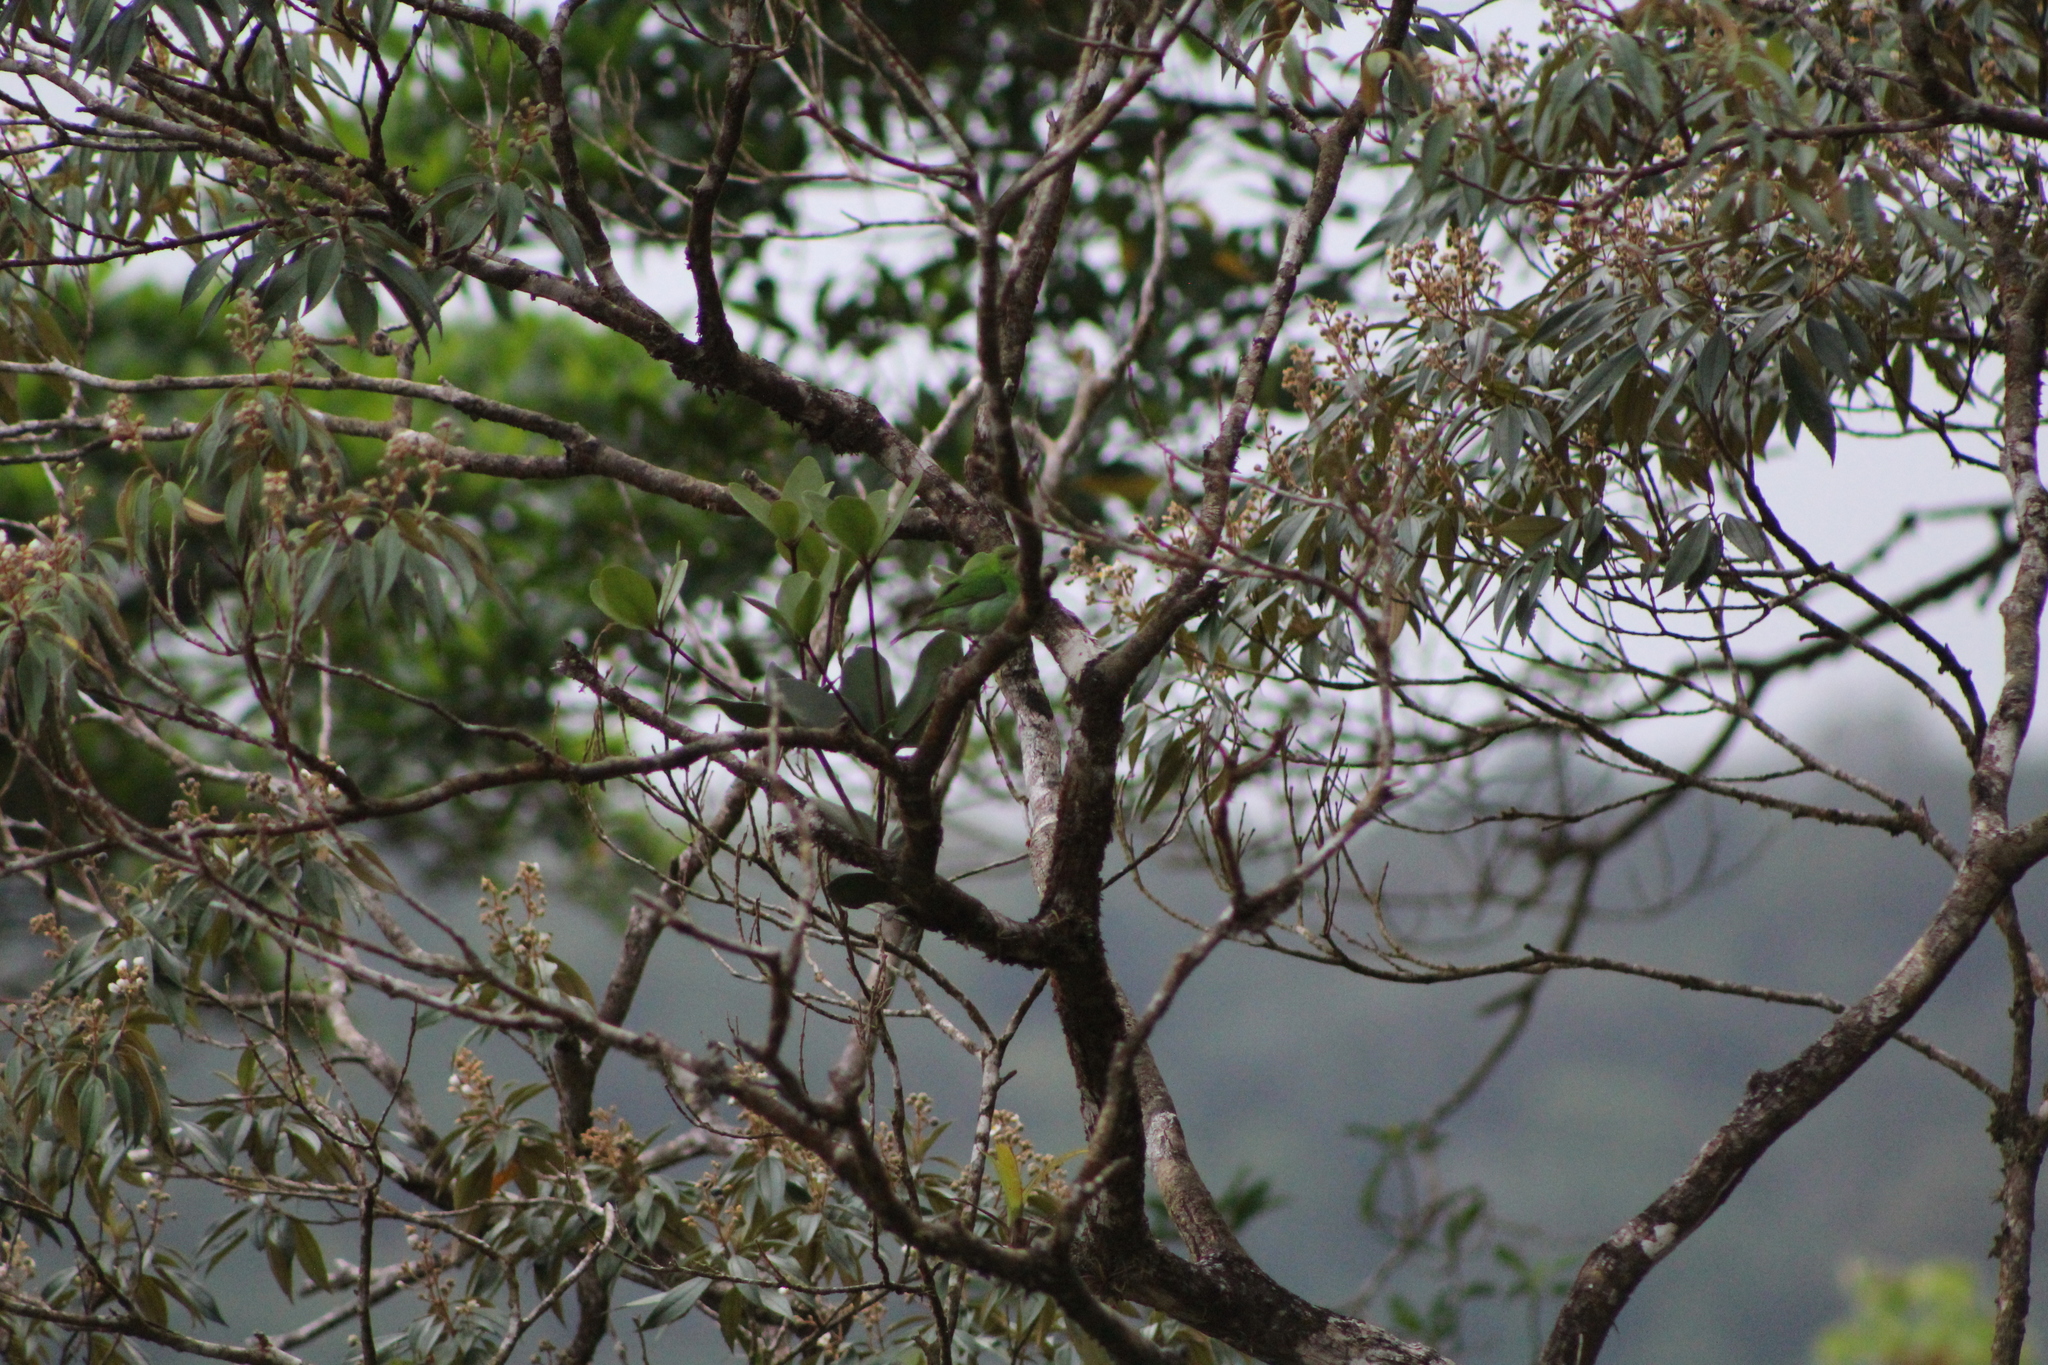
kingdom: Animalia
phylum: Chordata
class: Aves
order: Passeriformes
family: Thraupidae
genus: Chlorophanes
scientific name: Chlorophanes spiza
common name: Green honeycreeper
